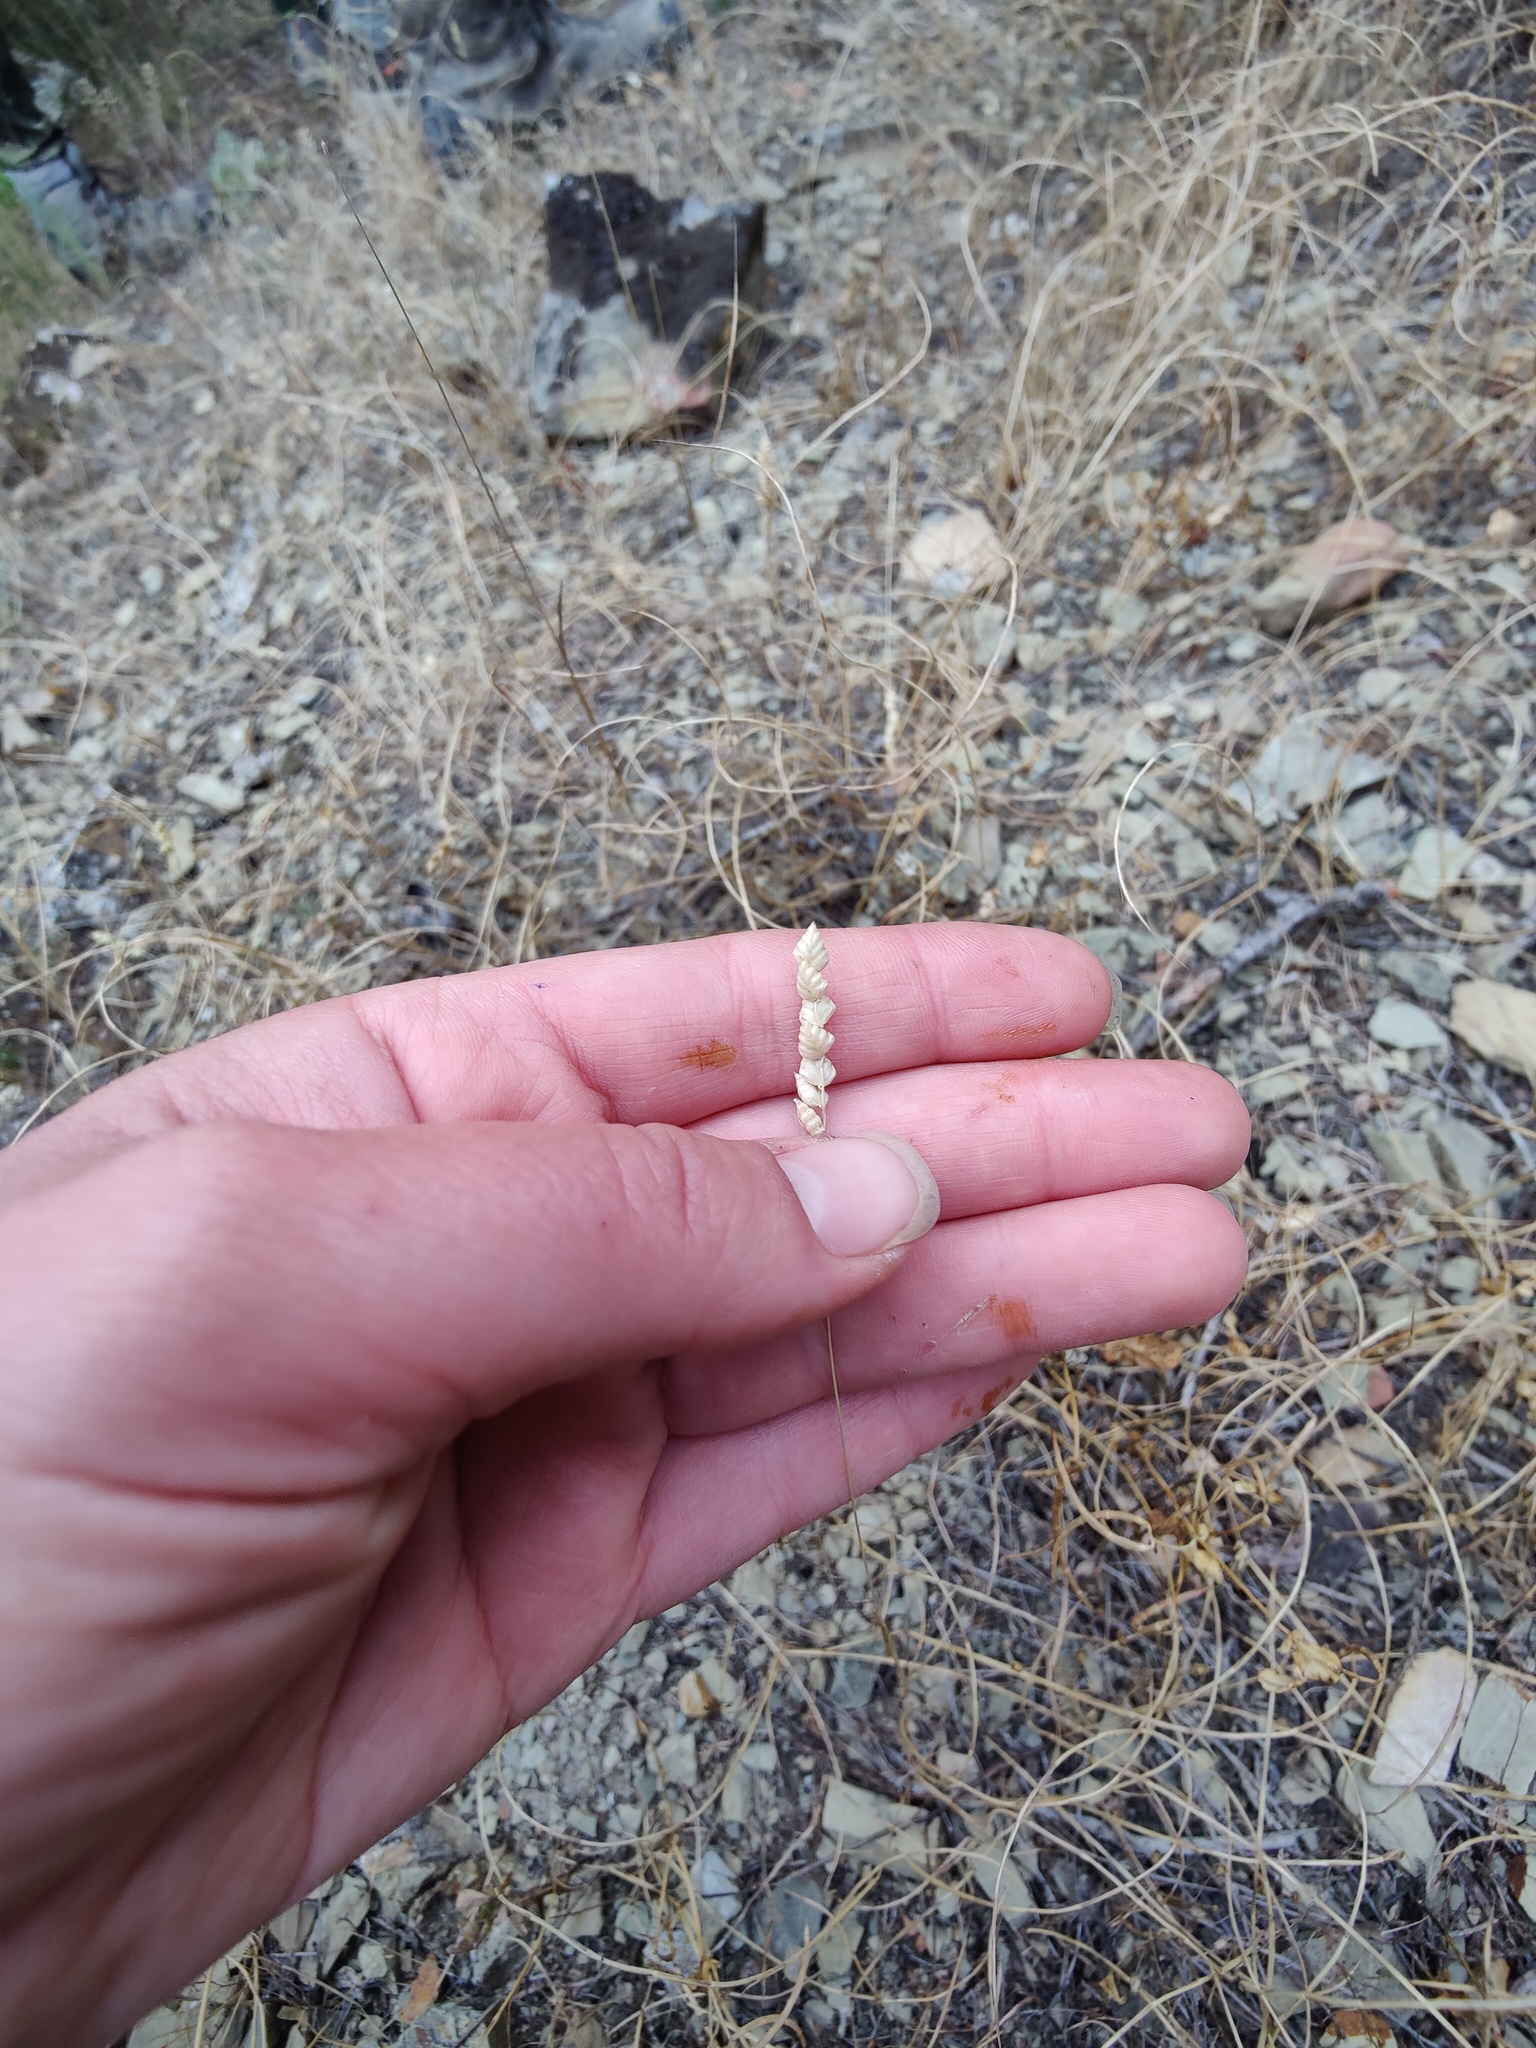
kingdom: Plantae
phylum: Tracheophyta
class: Liliopsida
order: Poales
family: Poaceae
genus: Briza
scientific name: Briza humilis
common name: Spiked quaking grass
